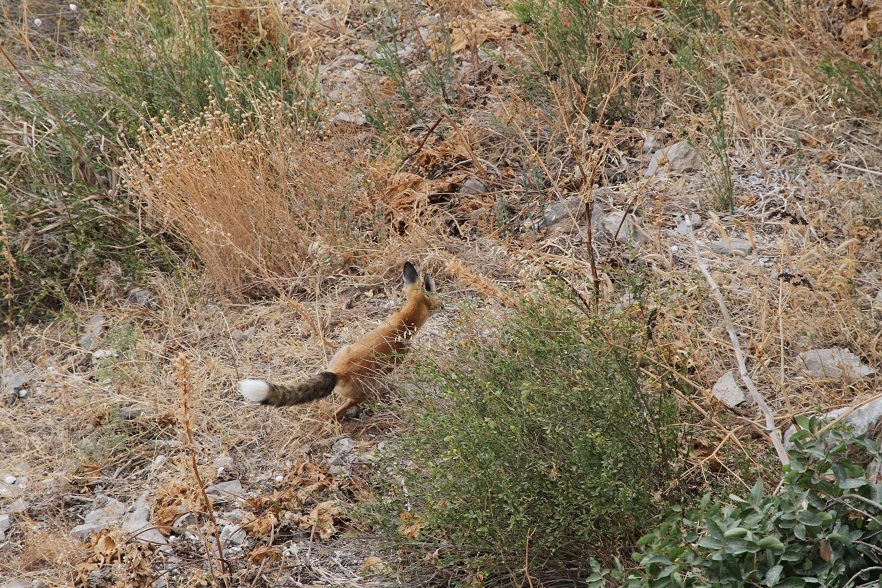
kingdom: Animalia
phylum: Chordata
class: Mammalia
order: Carnivora
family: Canidae
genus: Vulpes
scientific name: Vulpes vulpes
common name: Red fox
